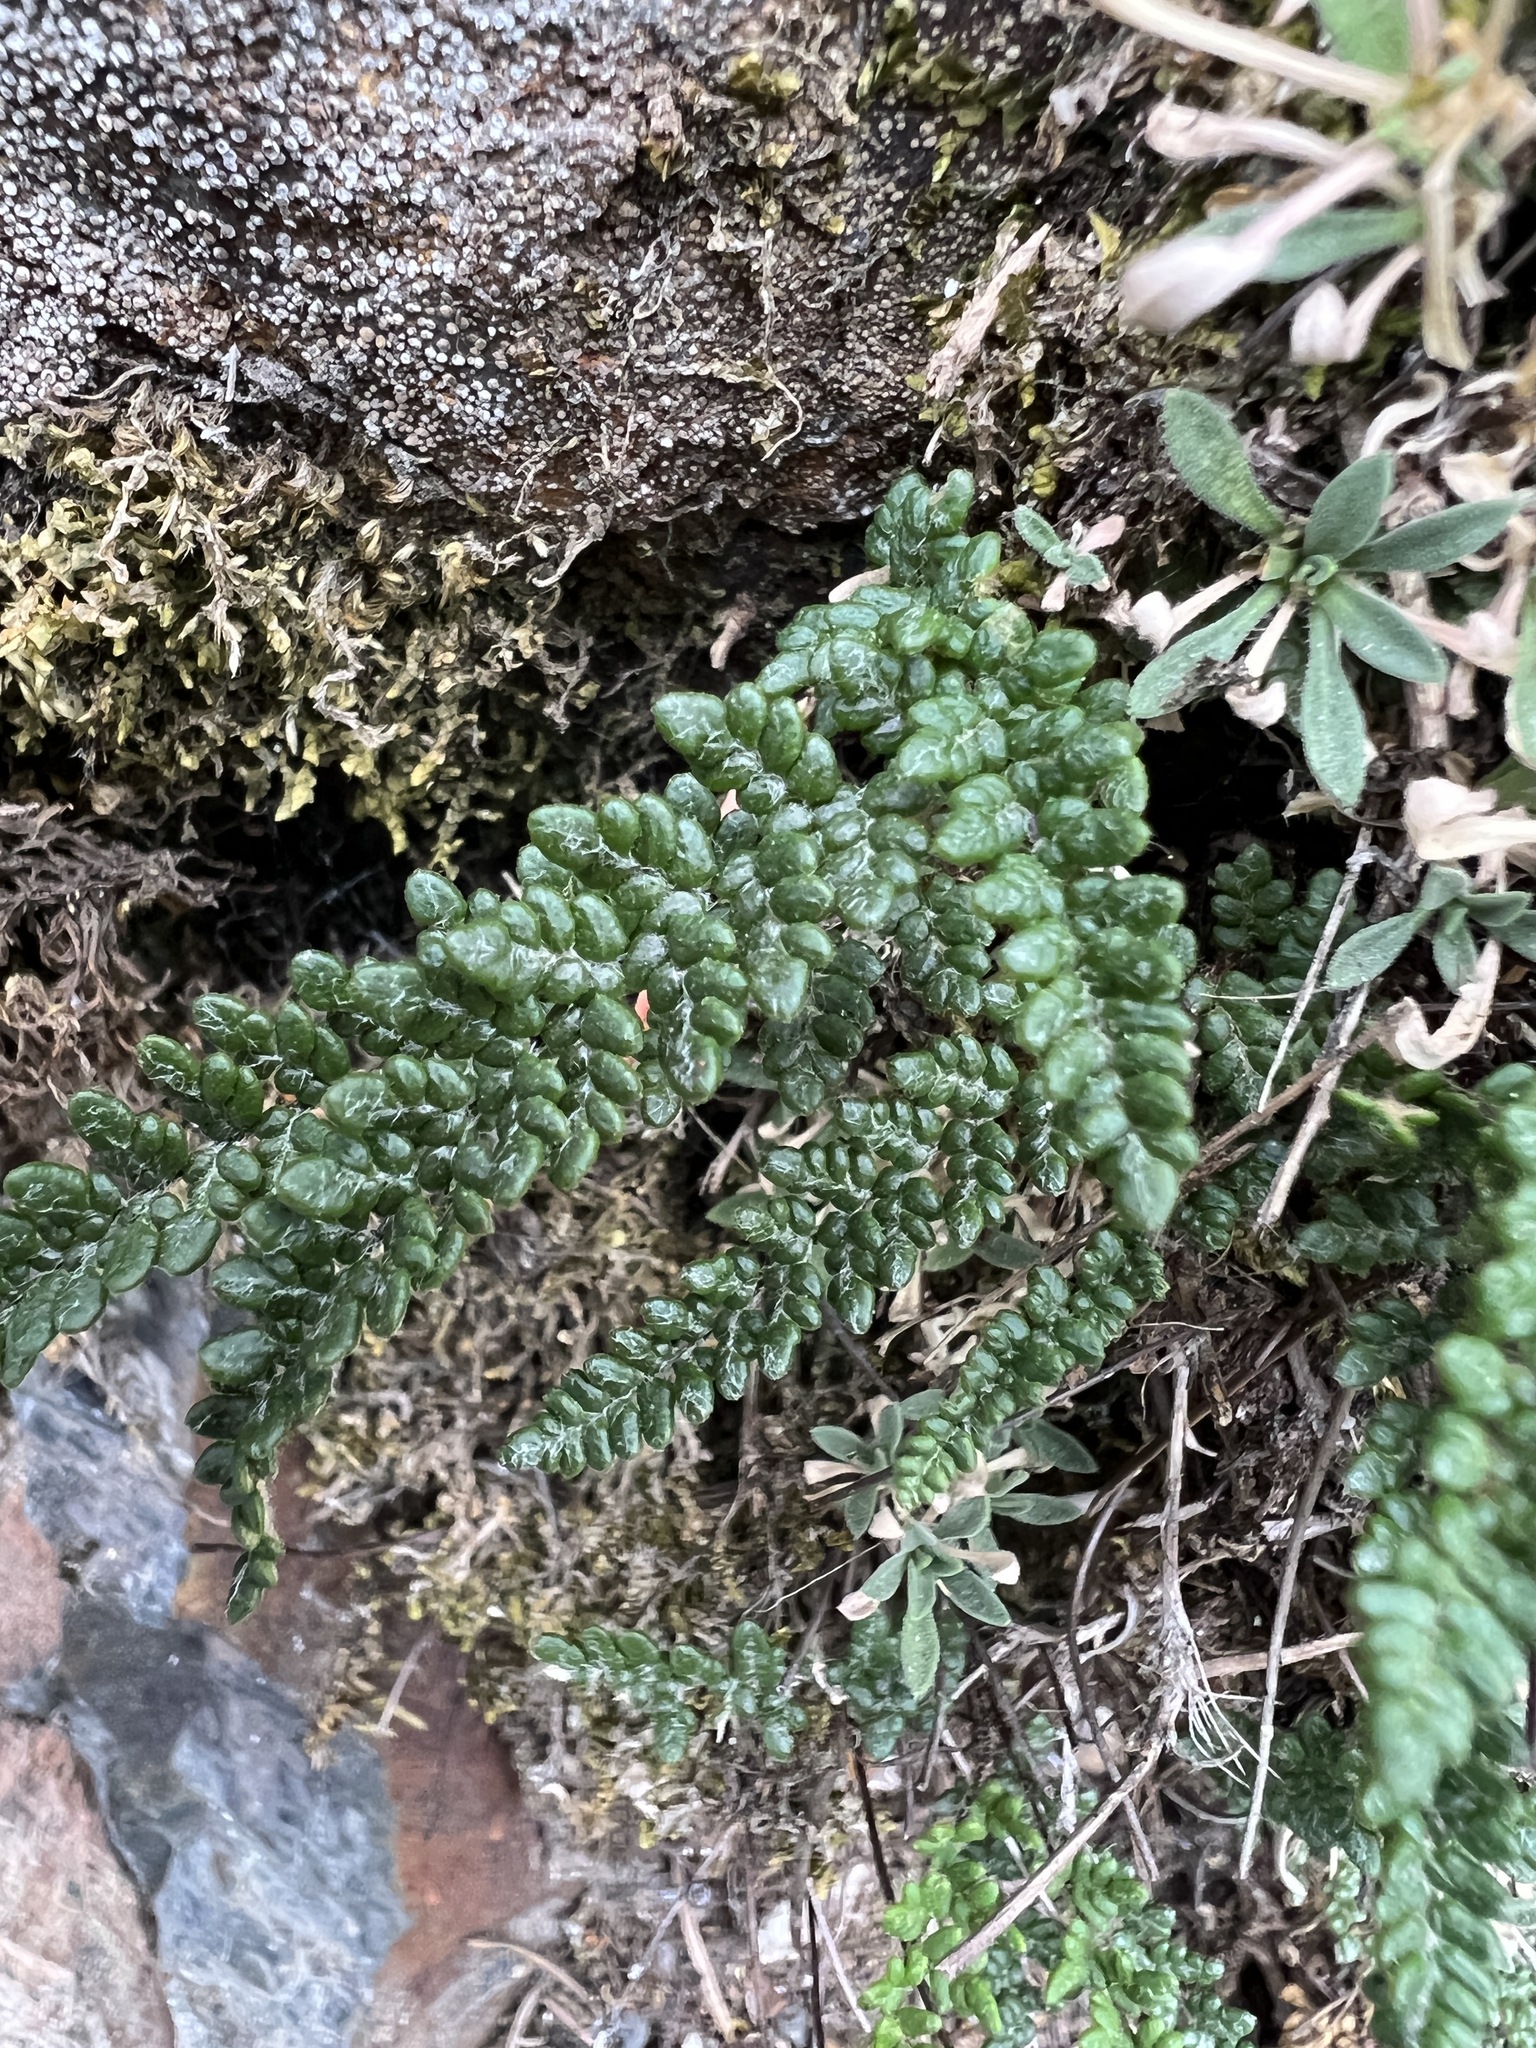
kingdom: Plantae
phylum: Tracheophyta
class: Polypodiopsida
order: Polypodiales
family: Pteridaceae
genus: Myriopteris
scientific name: Myriopteris gracillima
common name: Lace fern
